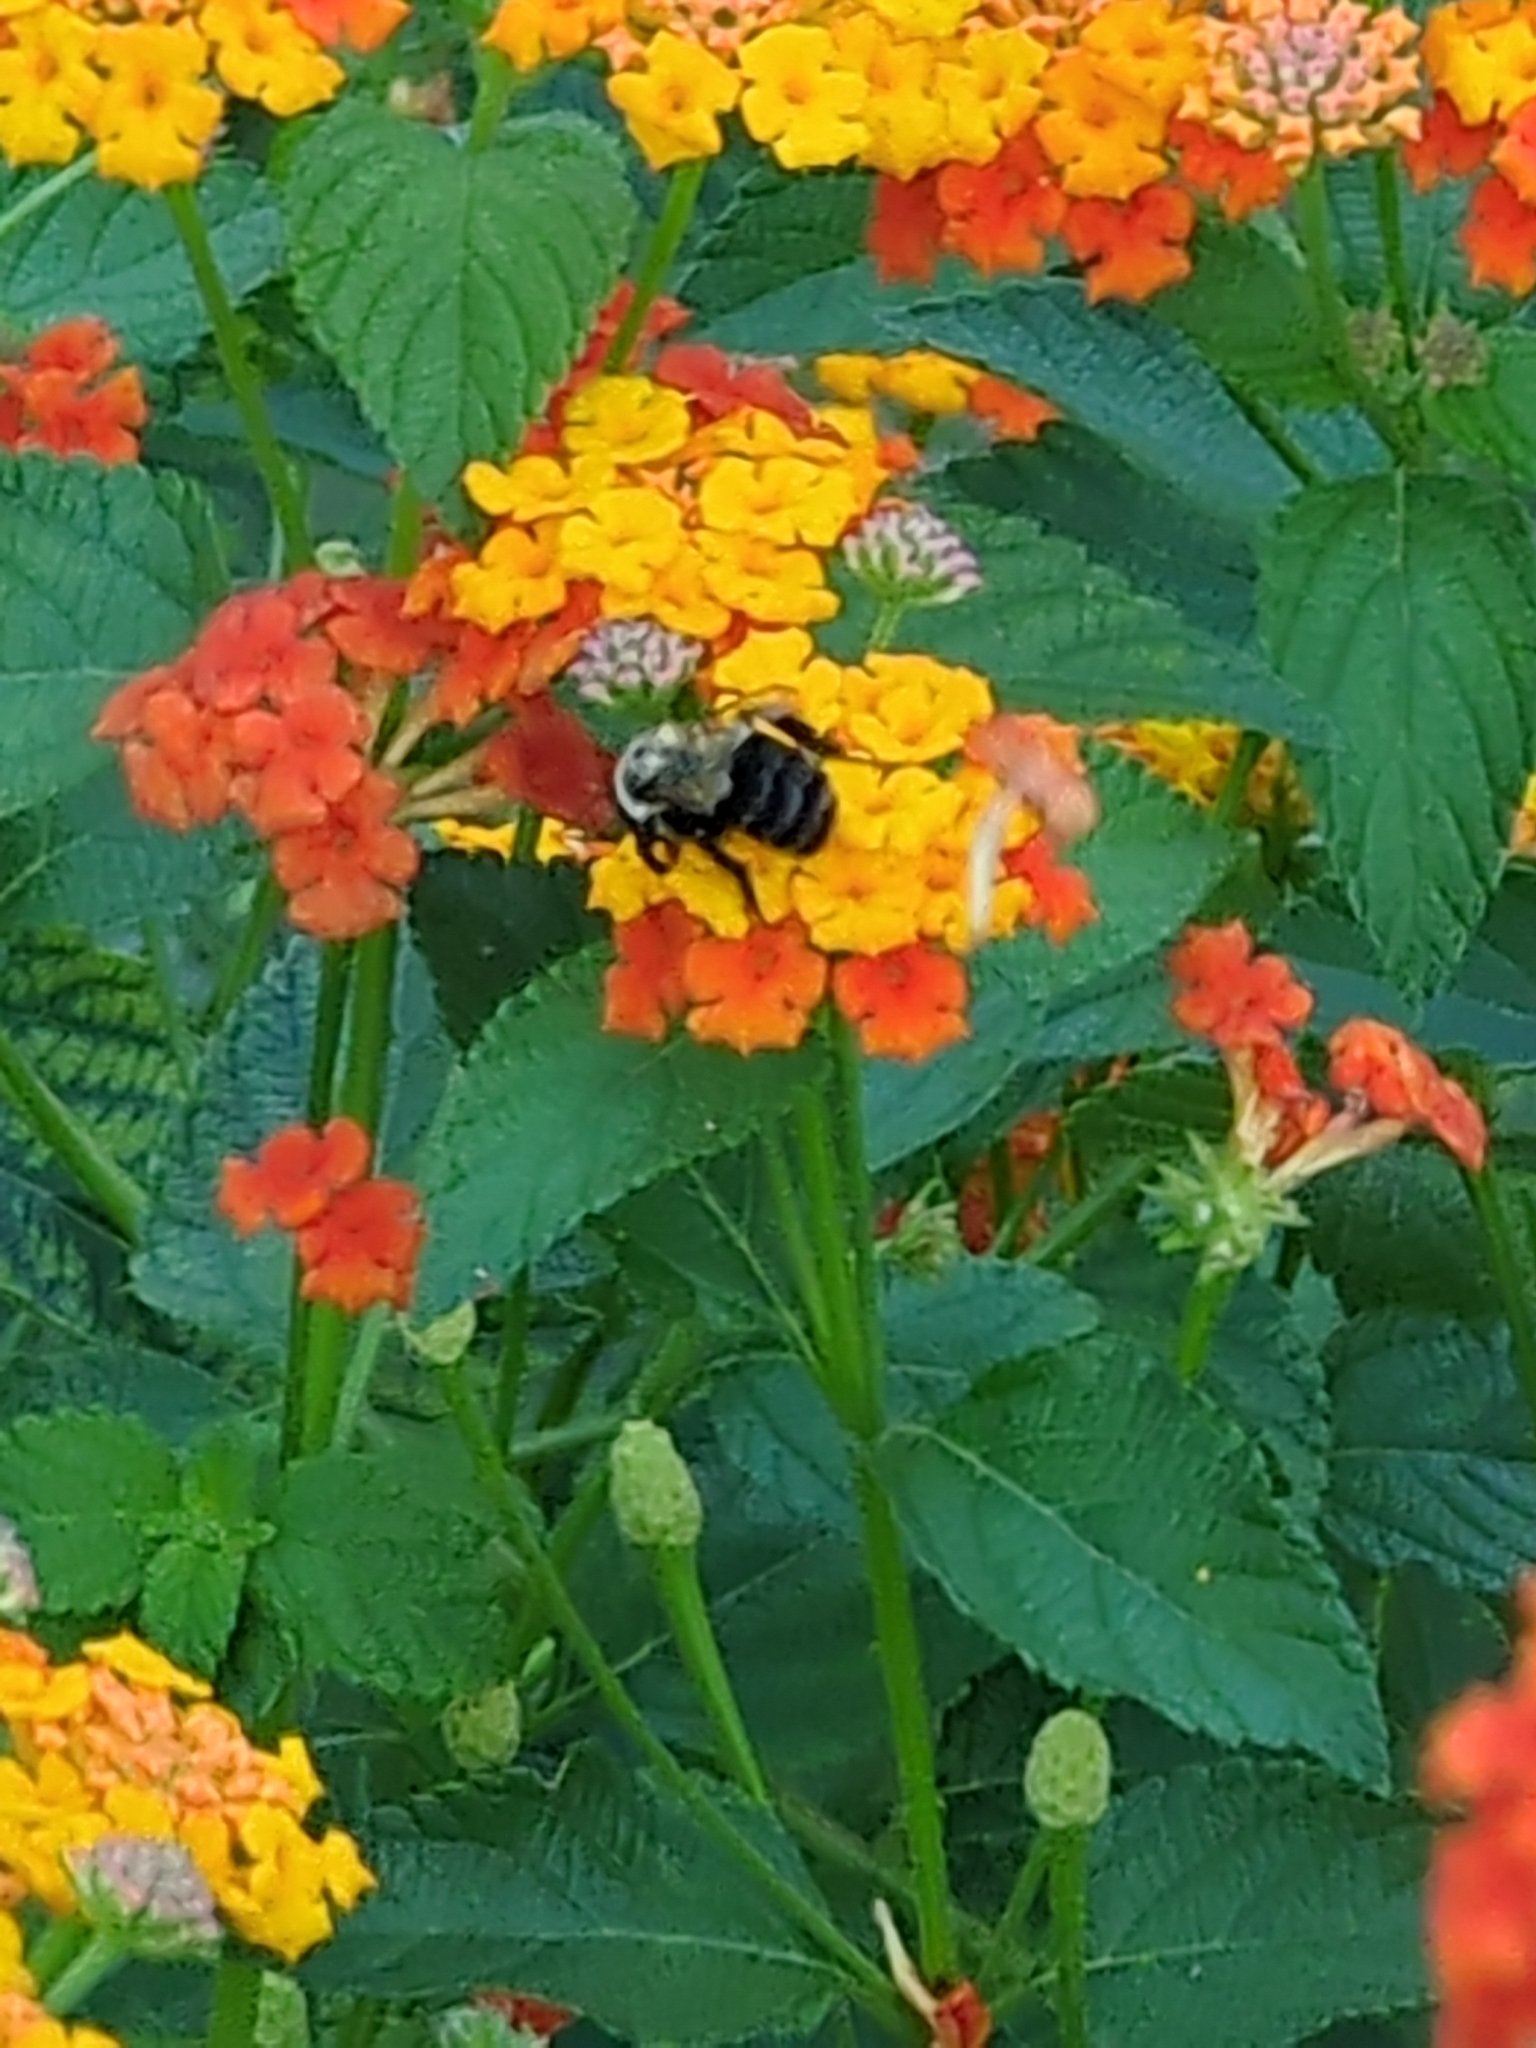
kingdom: Animalia
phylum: Arthropoda
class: Insecta
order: Hymenoptera
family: Apidae
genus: Bombus
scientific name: Bombus impatiens
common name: Common eastern bumble bee
